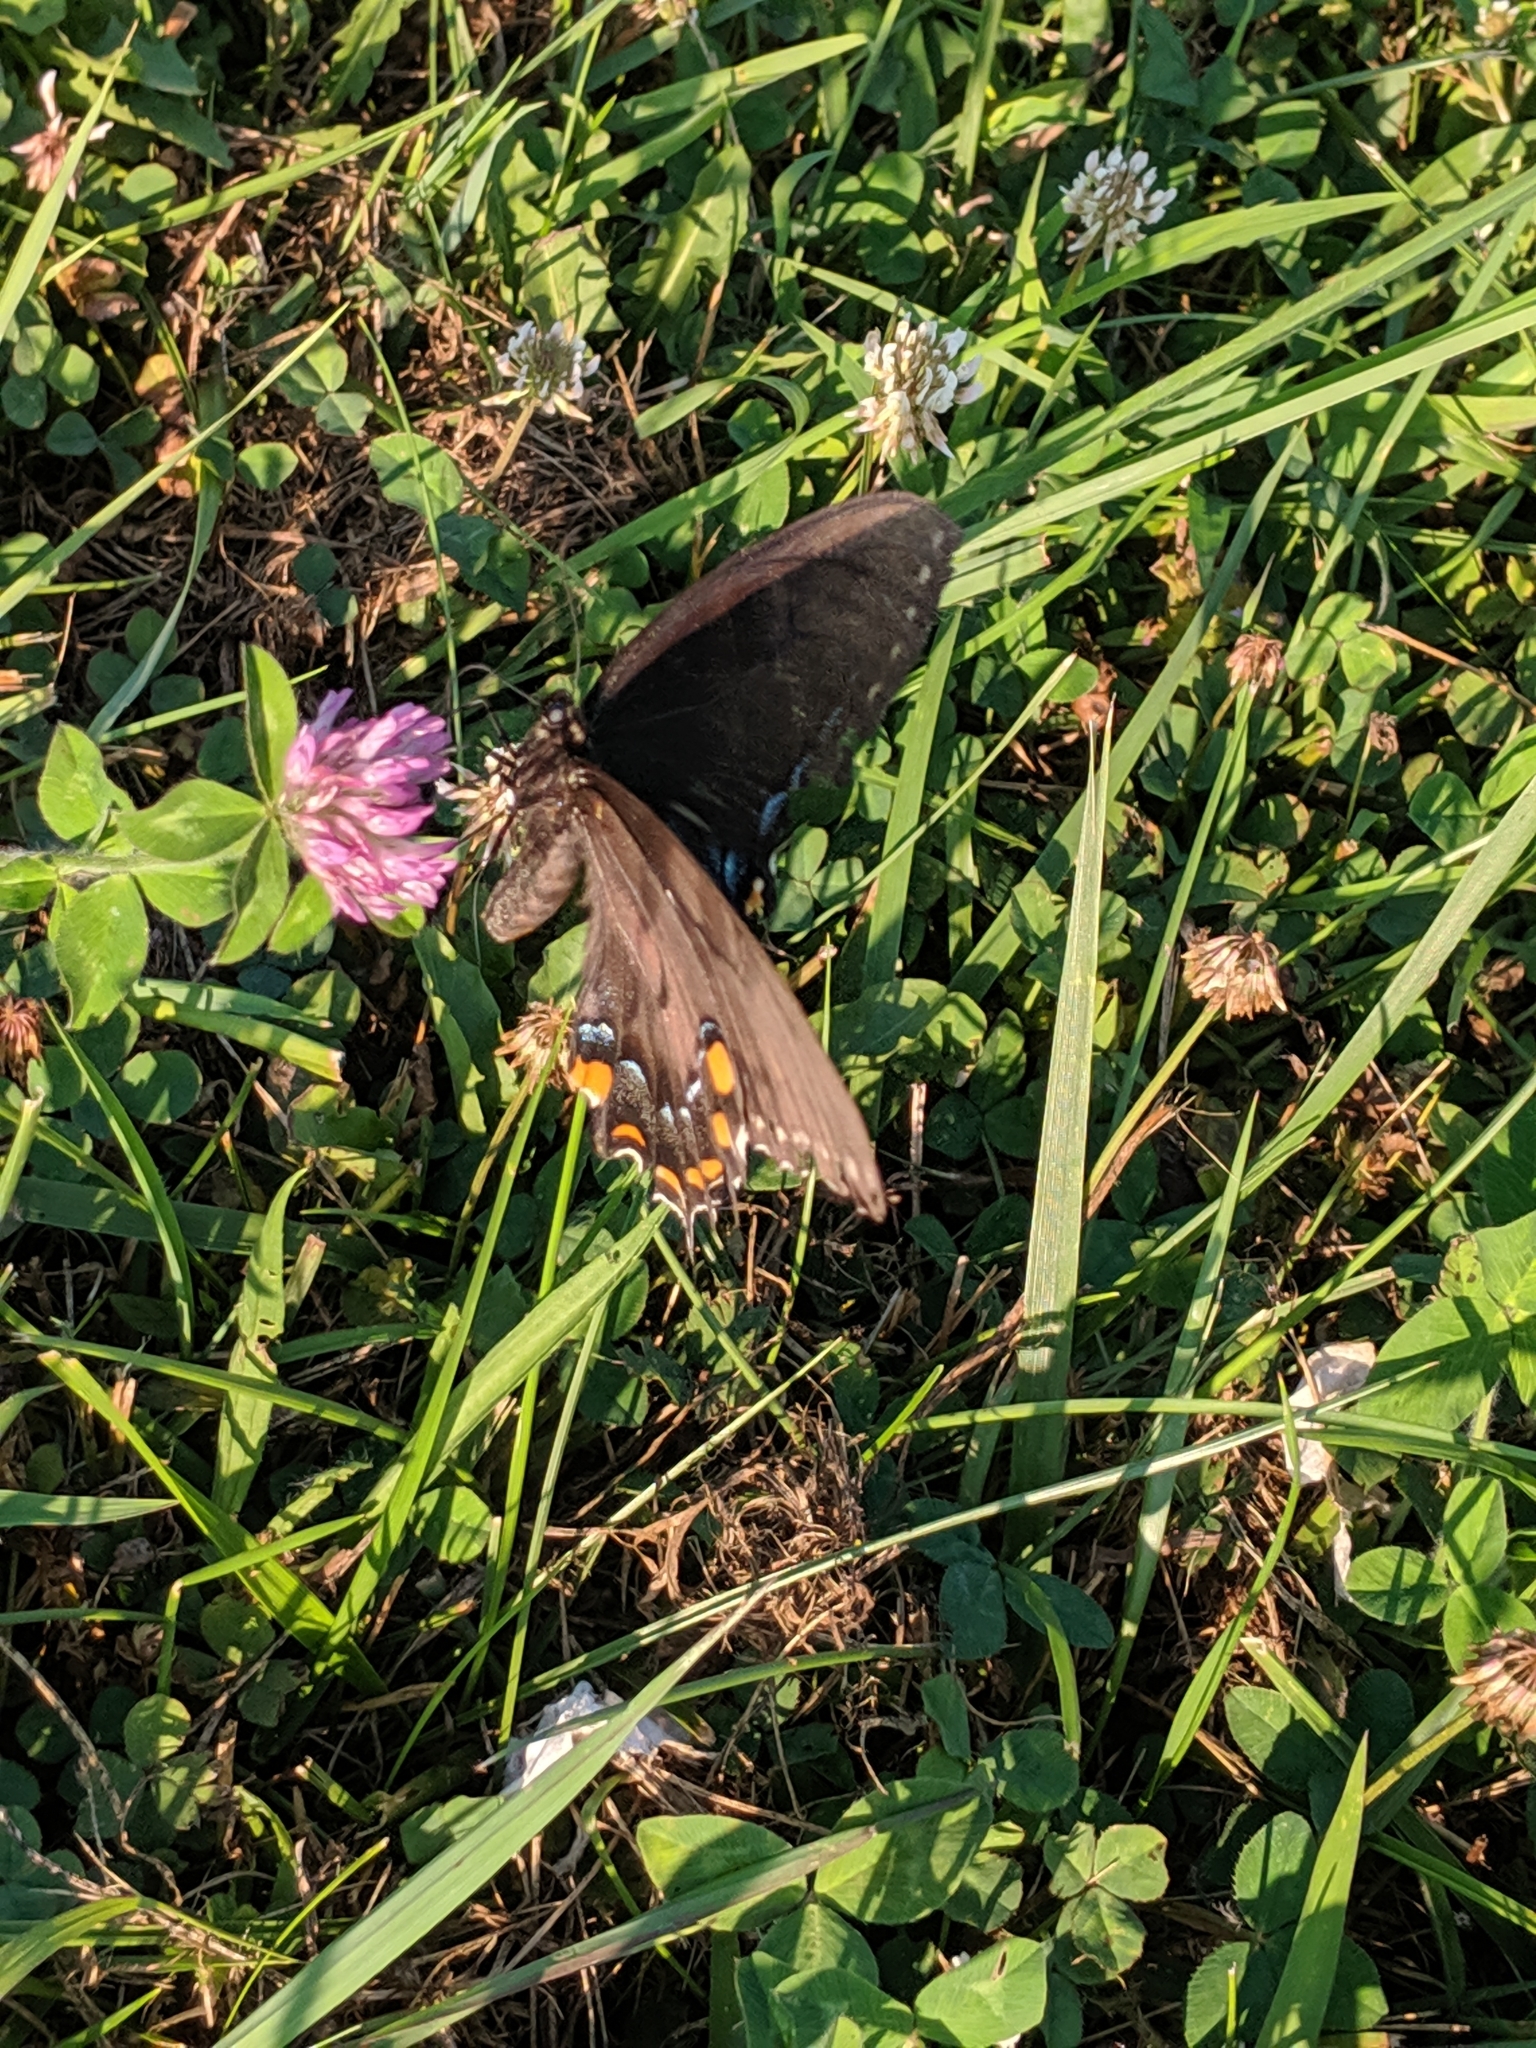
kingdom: Animalia
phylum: Arthropoda
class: Insecta
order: Lepidoptera
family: Papilionidae
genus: Papilio
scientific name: Papilio glaucus
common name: Tiger swallowtail
